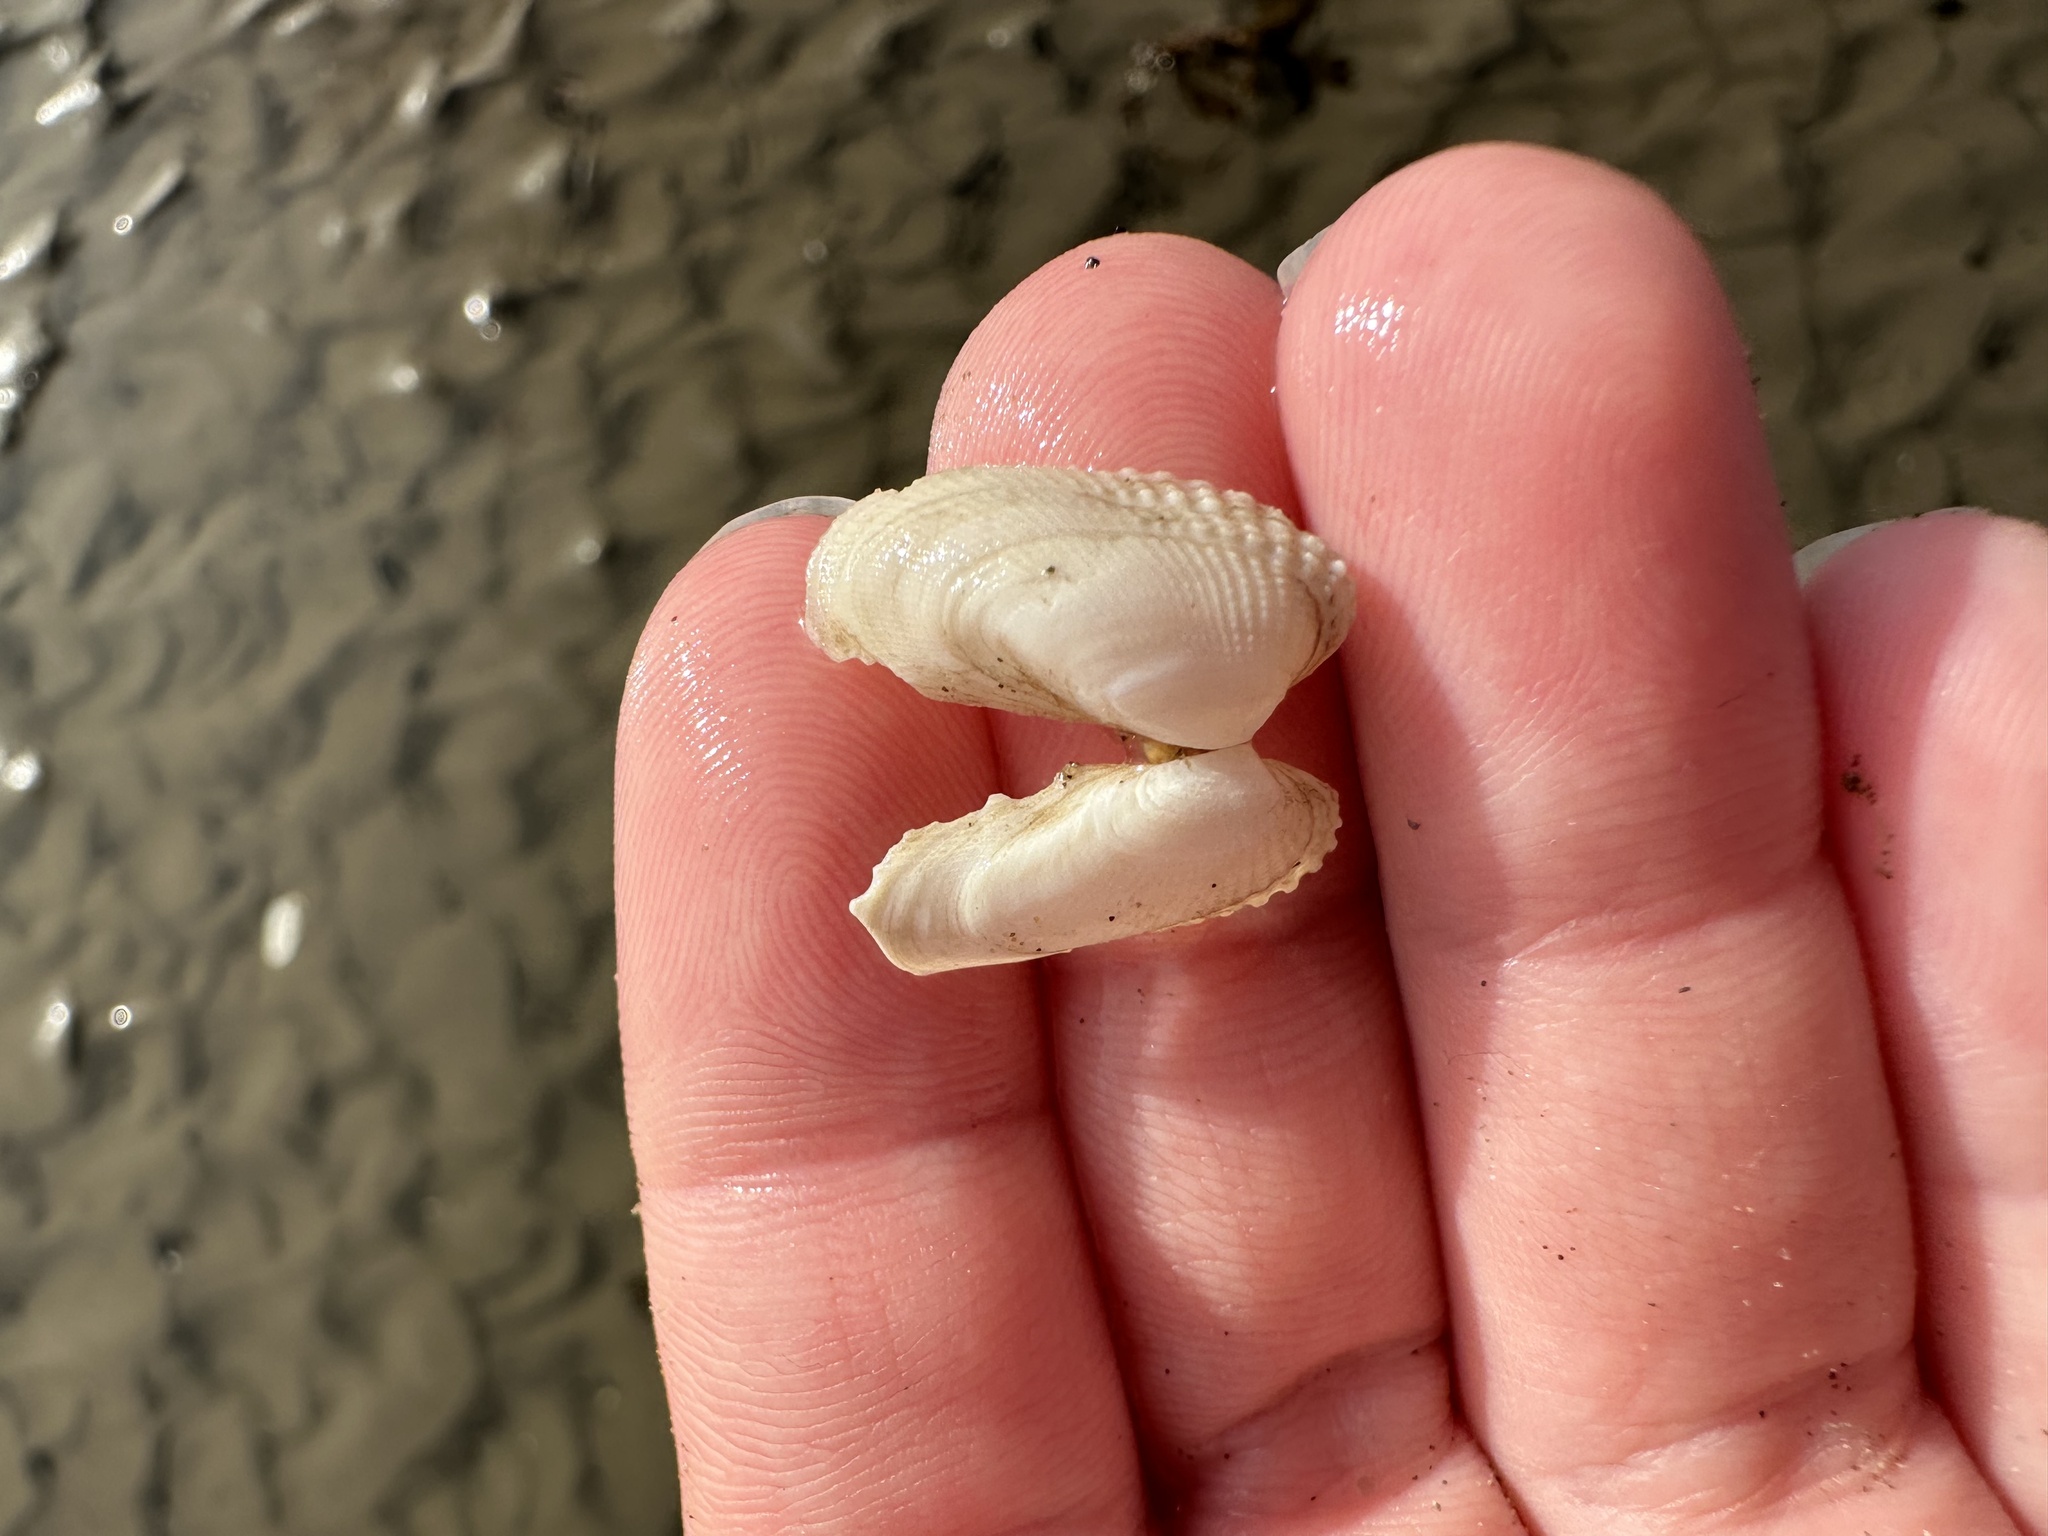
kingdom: Animalia
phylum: Mollusca
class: Bivalvia
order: Venerida
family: Veneridae
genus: Petricolaria
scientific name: Petricolaria pholadiformis
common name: American piddock
